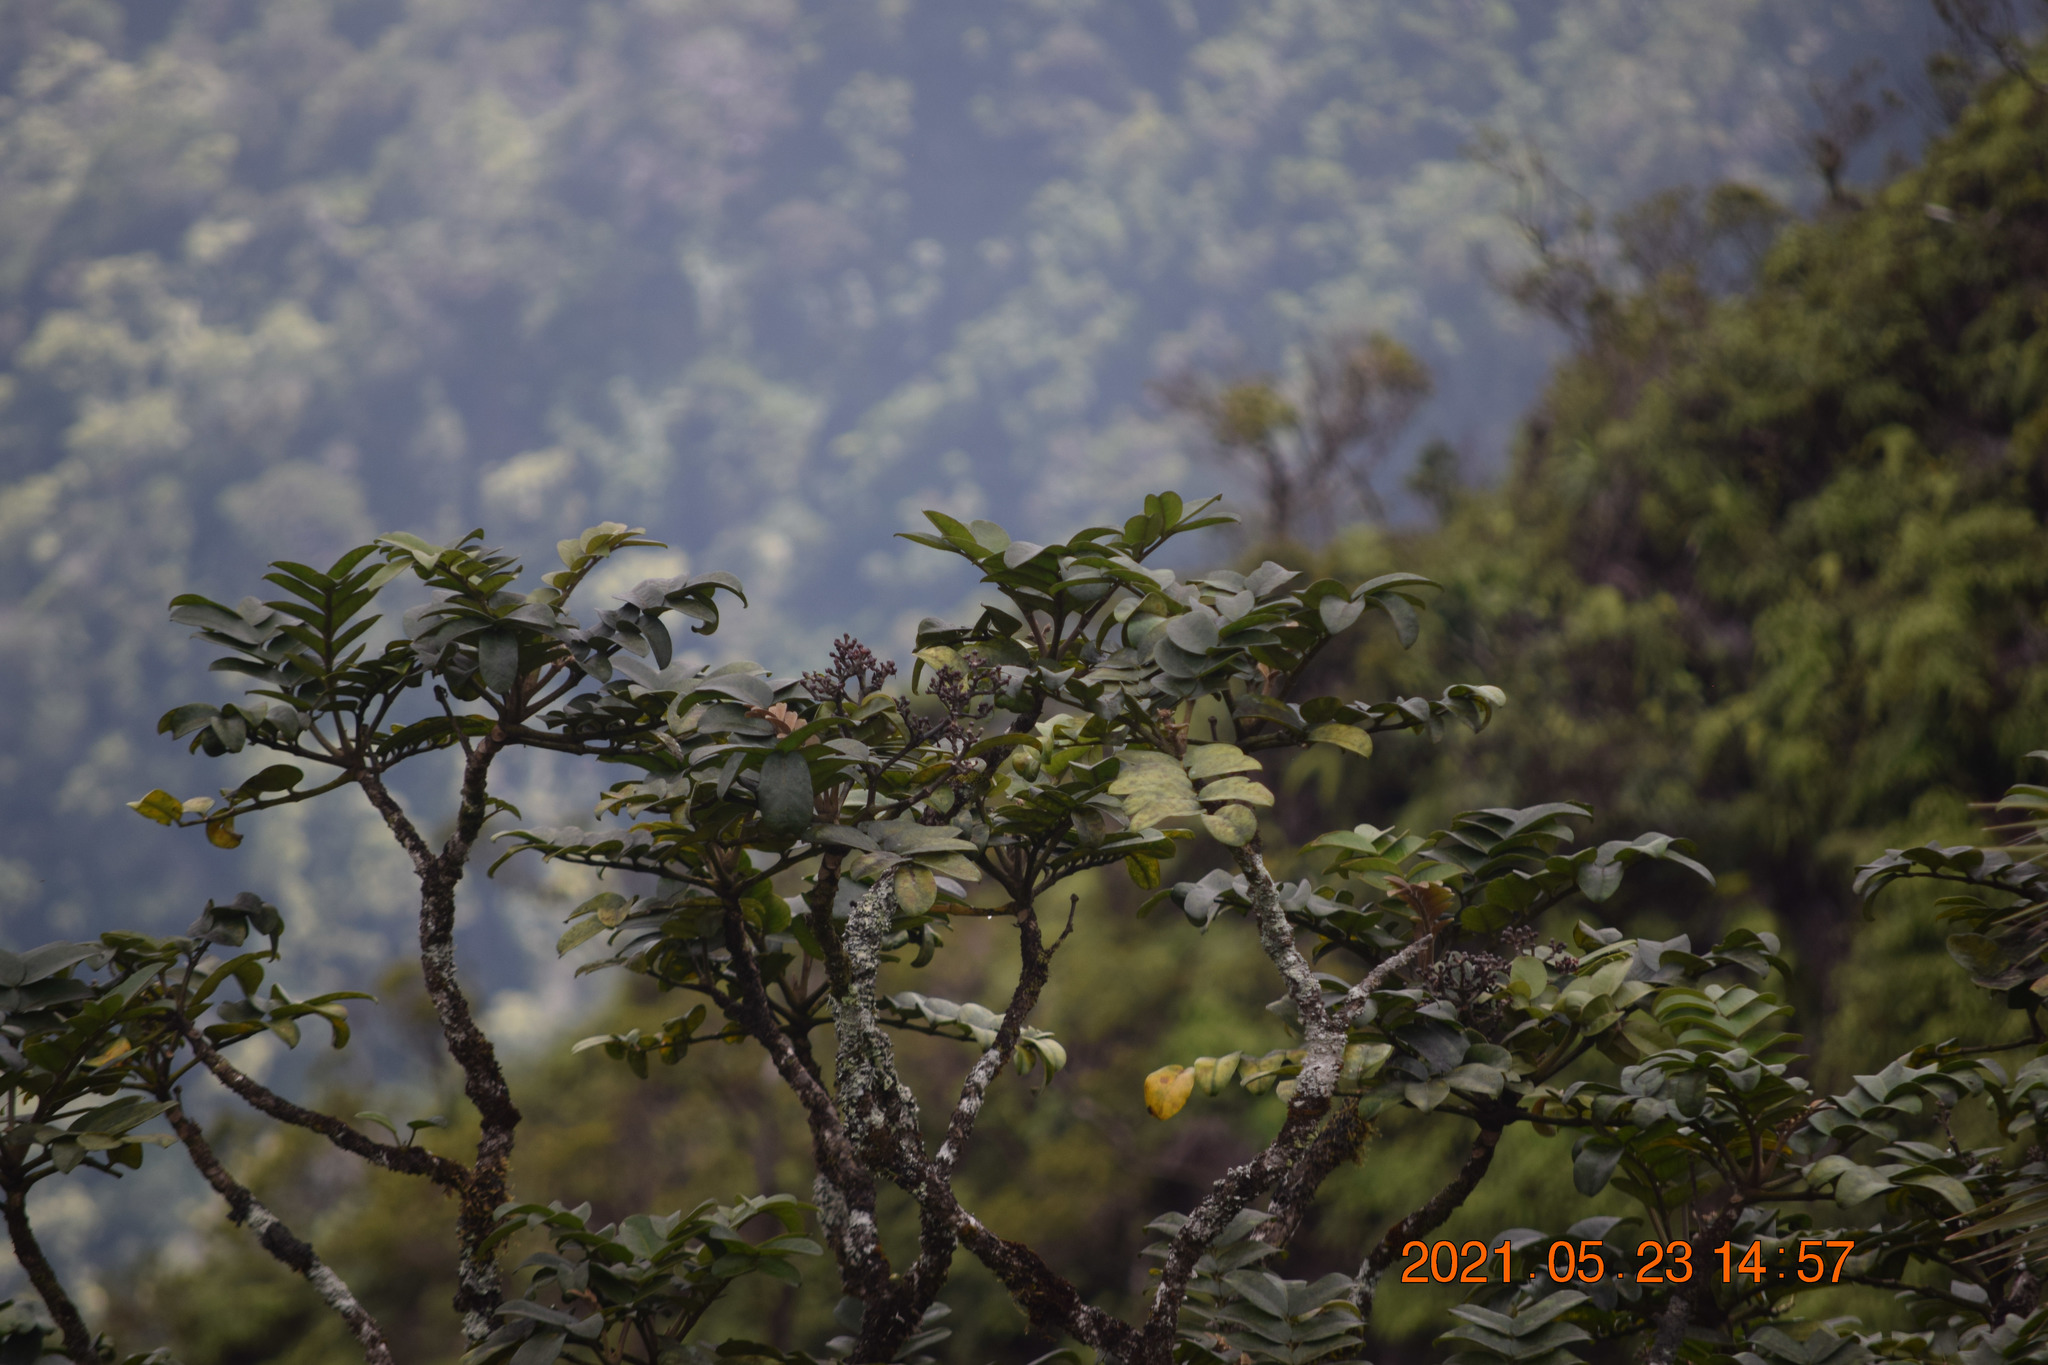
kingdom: Plantae
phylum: Tracheophyta
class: Magnoliopsida
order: Apiales
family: Araliaceae
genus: Polyscias
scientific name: Polyscias oahuensis
